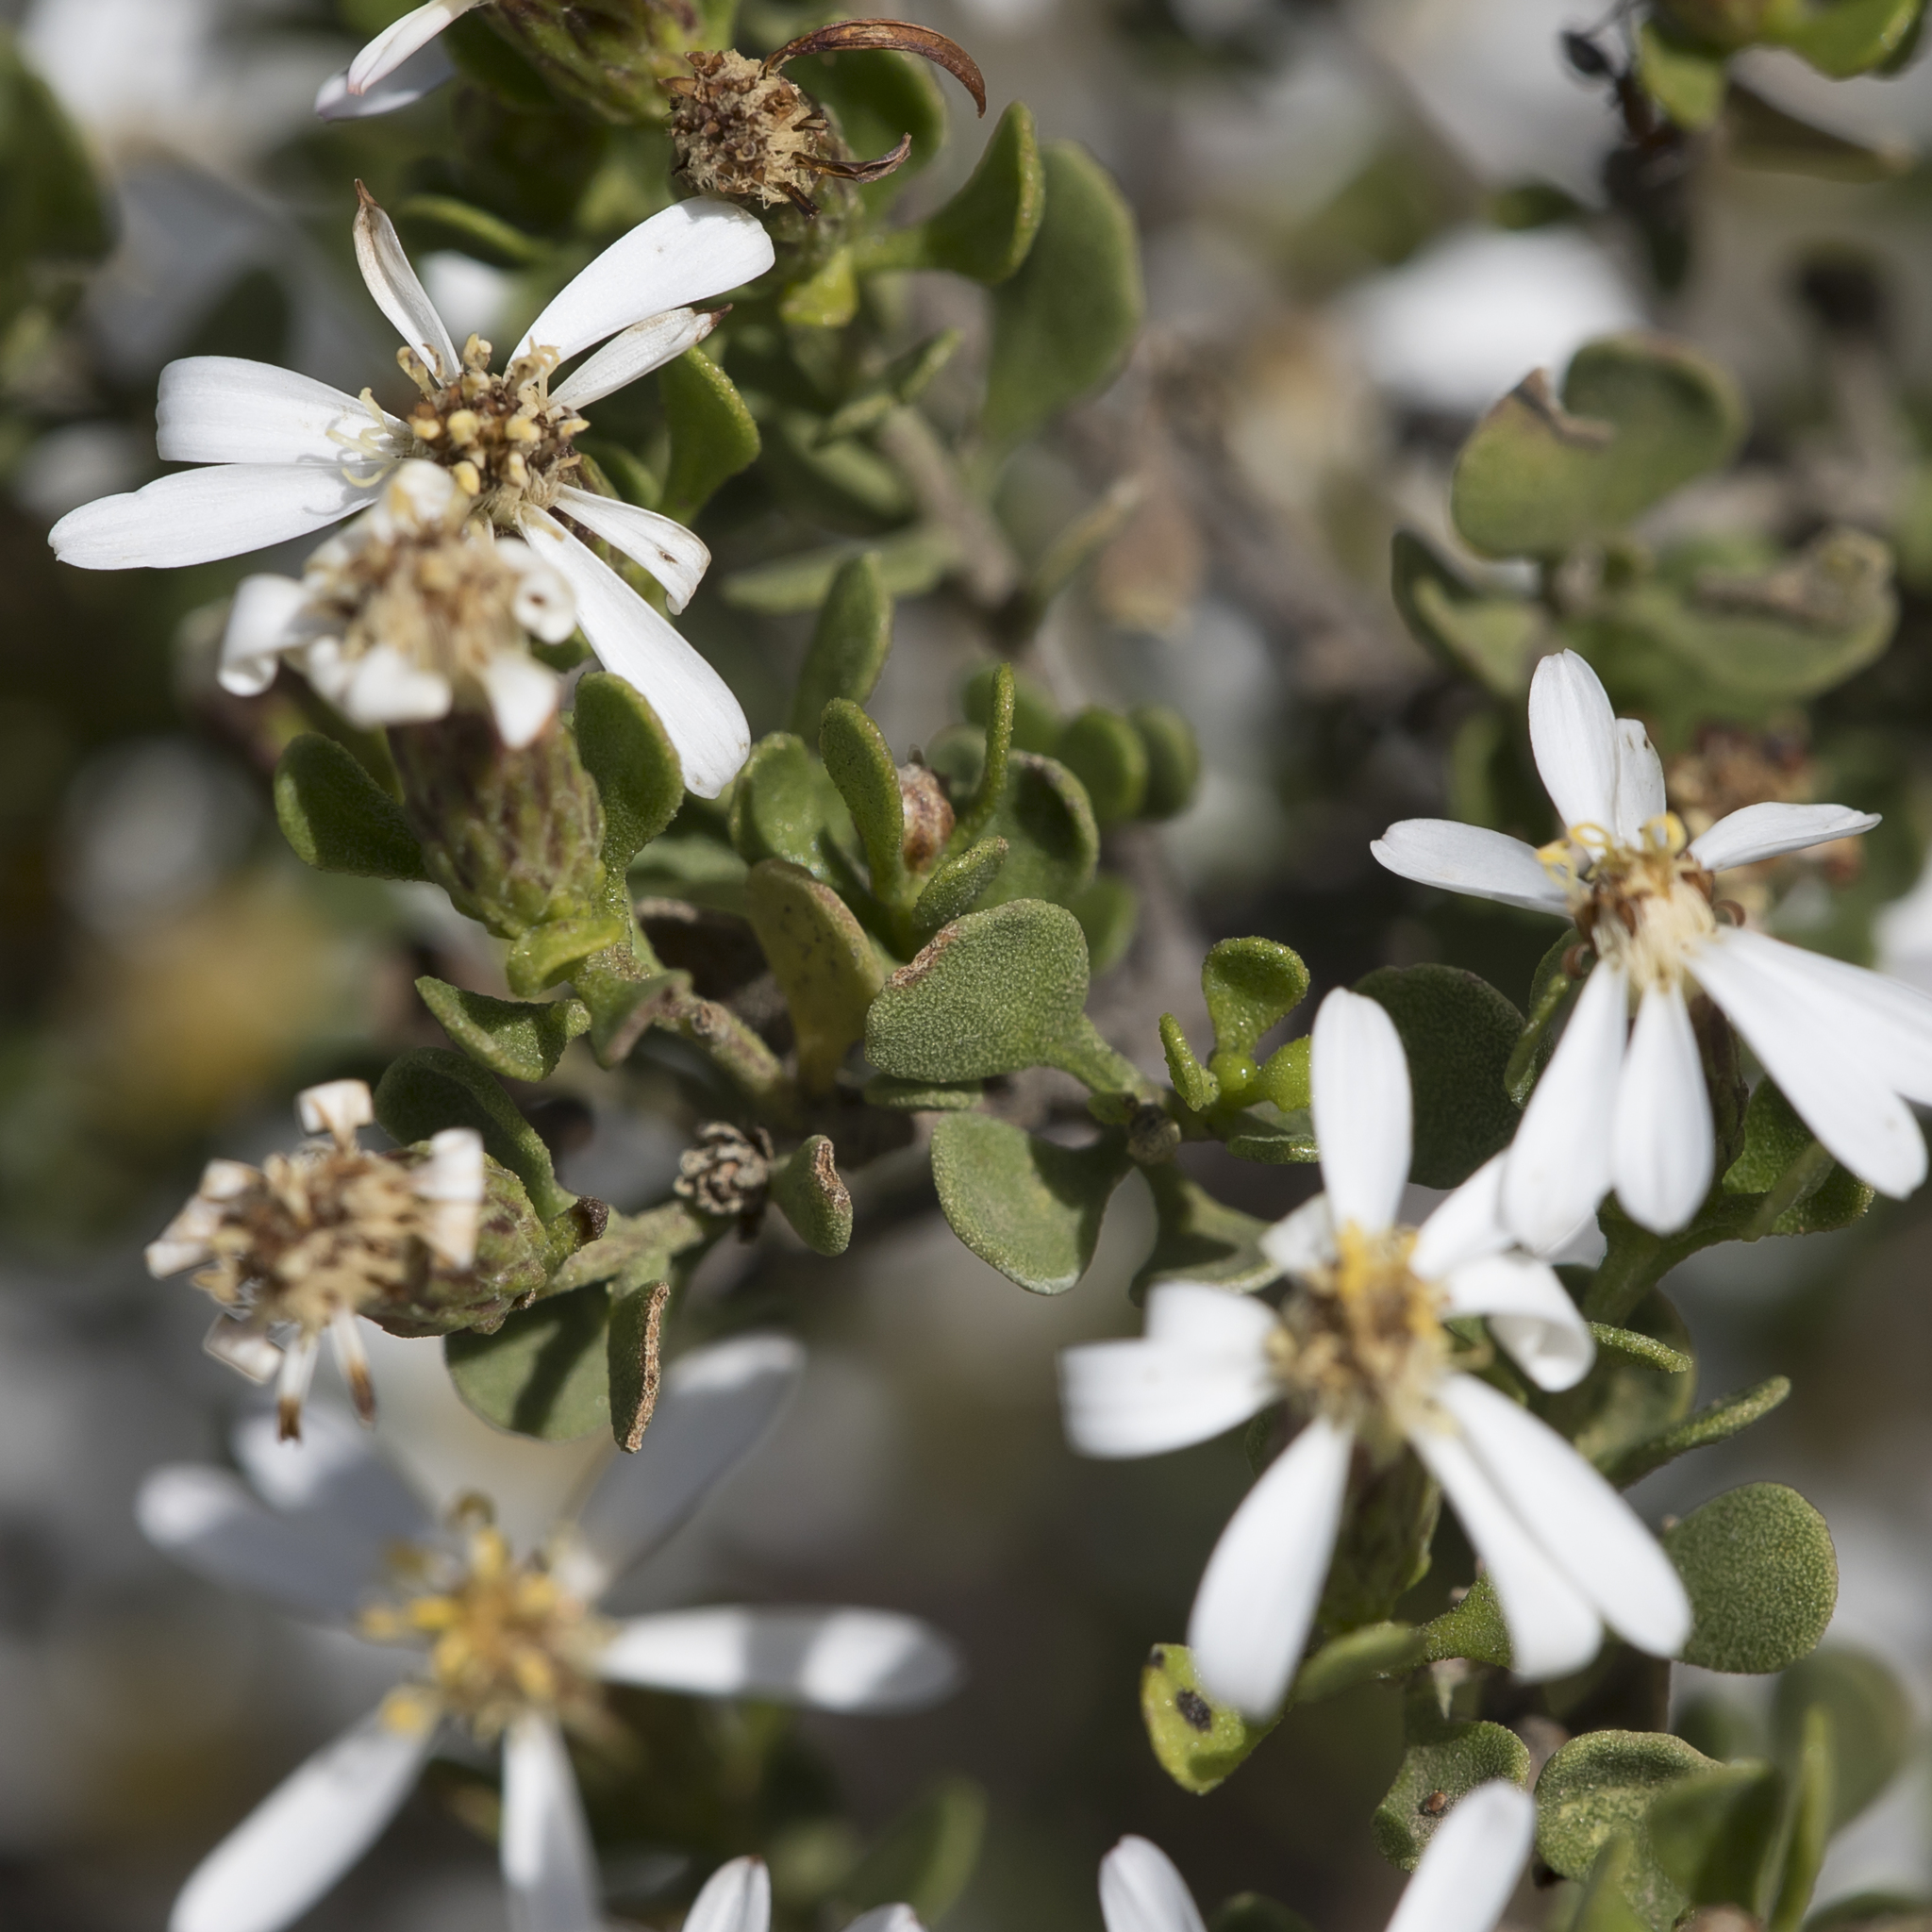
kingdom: Plantae
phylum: Tracheophyta
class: Magnoliopsida
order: Asterales
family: Asteraceae
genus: Walsholaria
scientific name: Walsholaria muelleri
